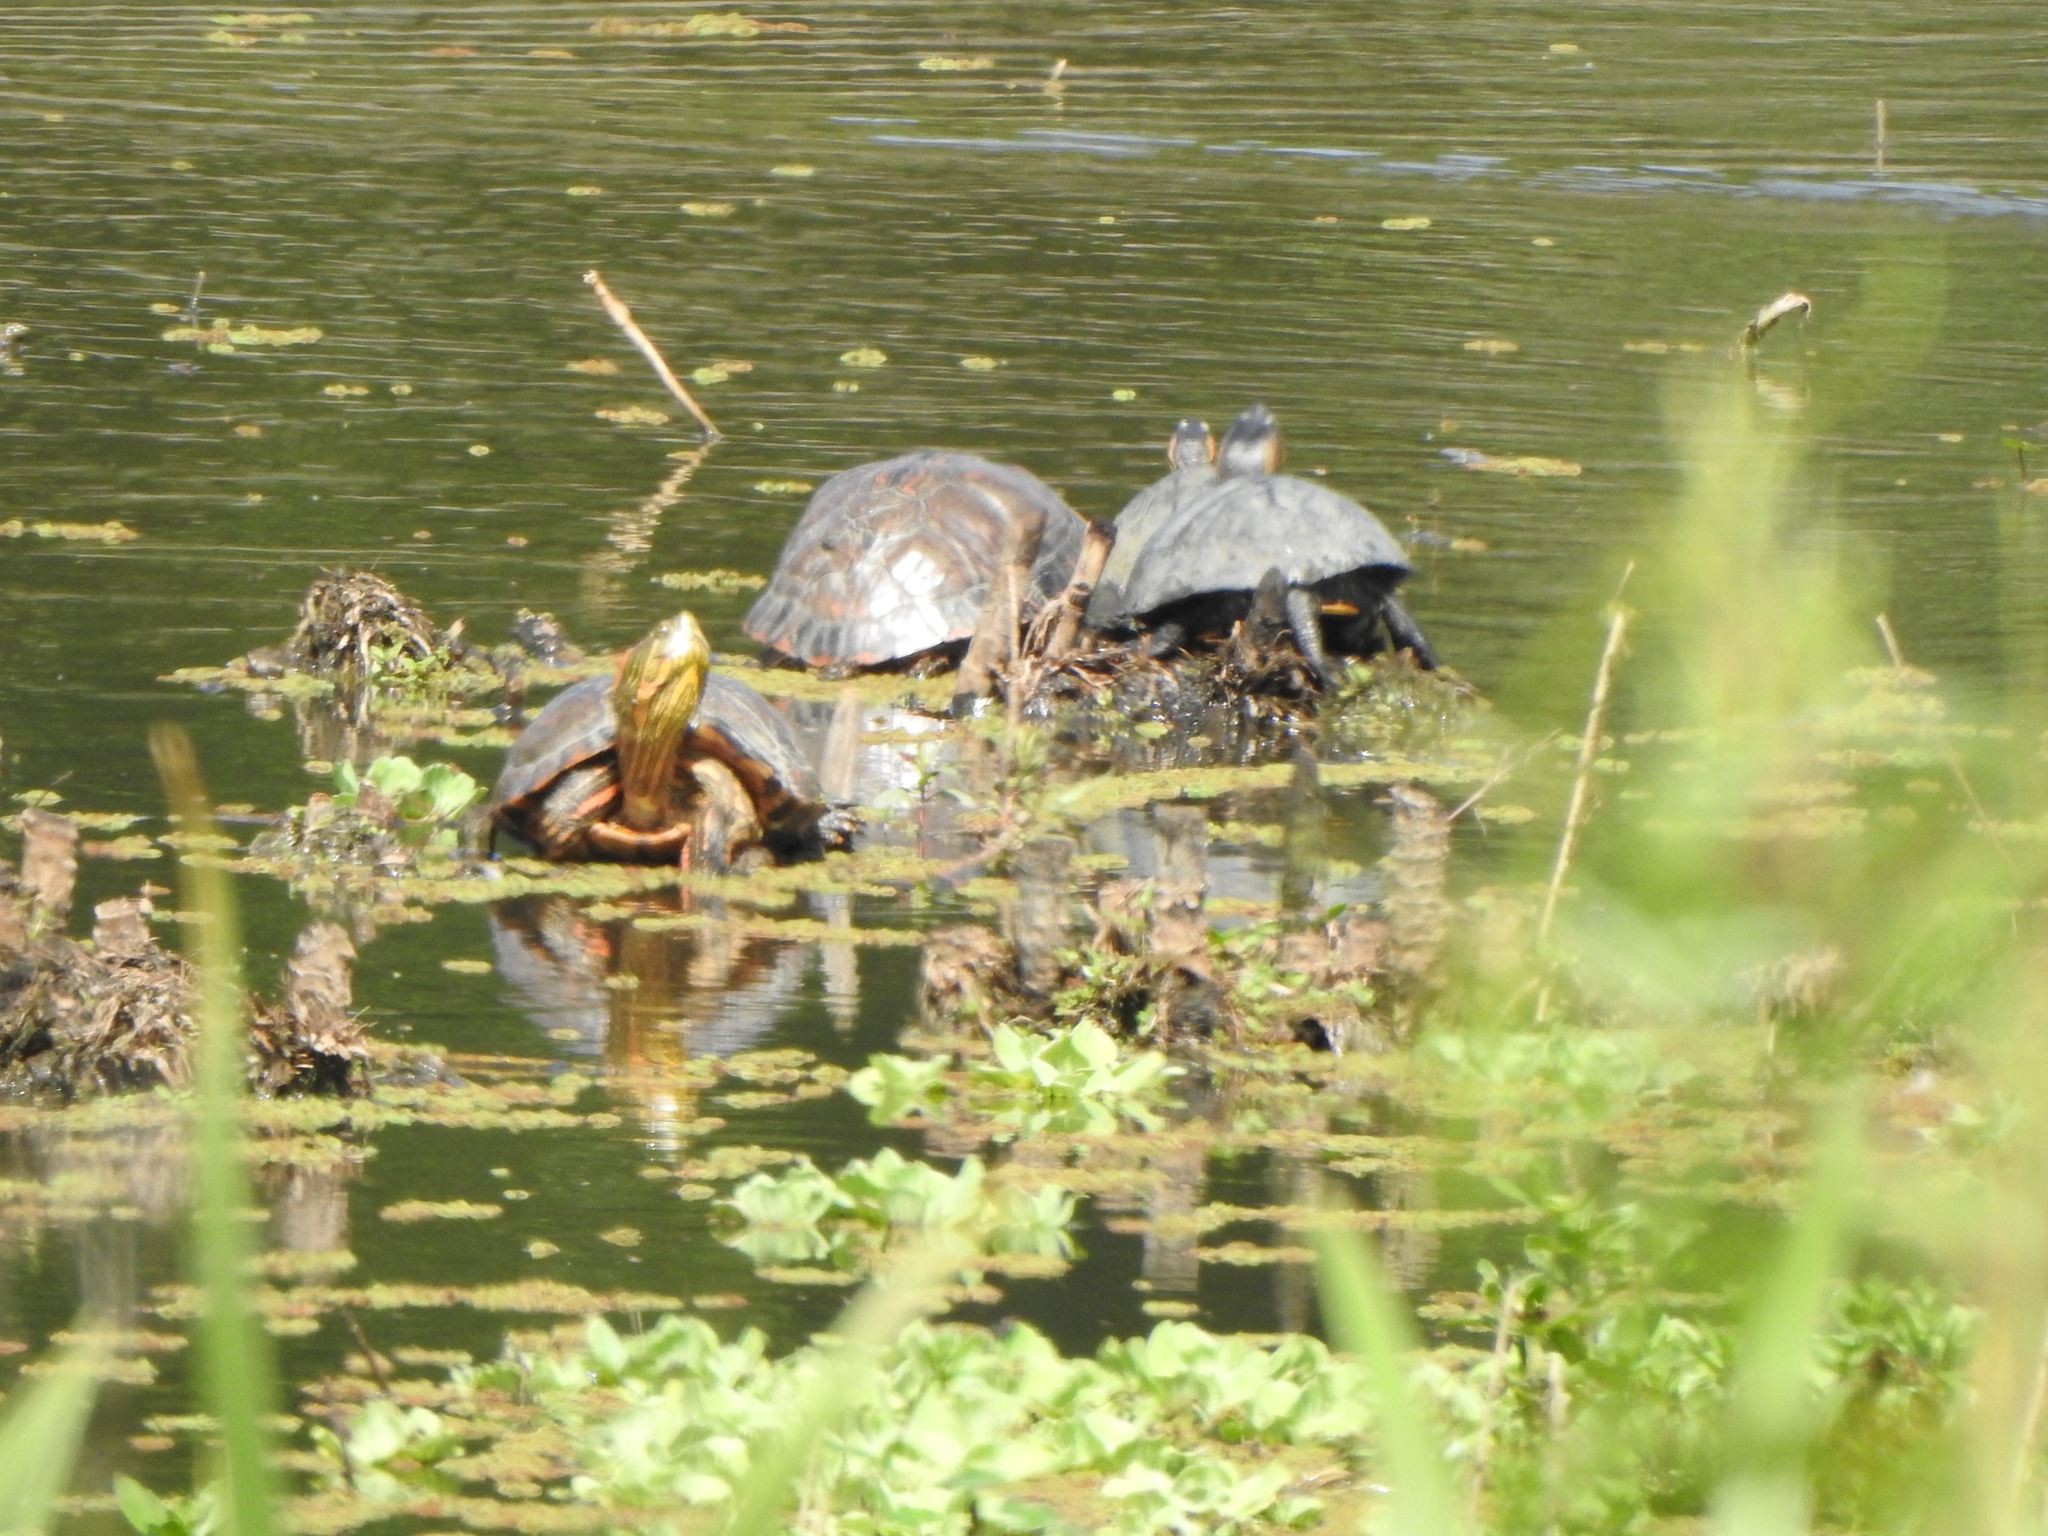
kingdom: Animalia
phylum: Chordata
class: Testudines
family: Emydidae
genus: Trachemys
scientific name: Trachemys dorbigni
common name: Black-bellied slider
